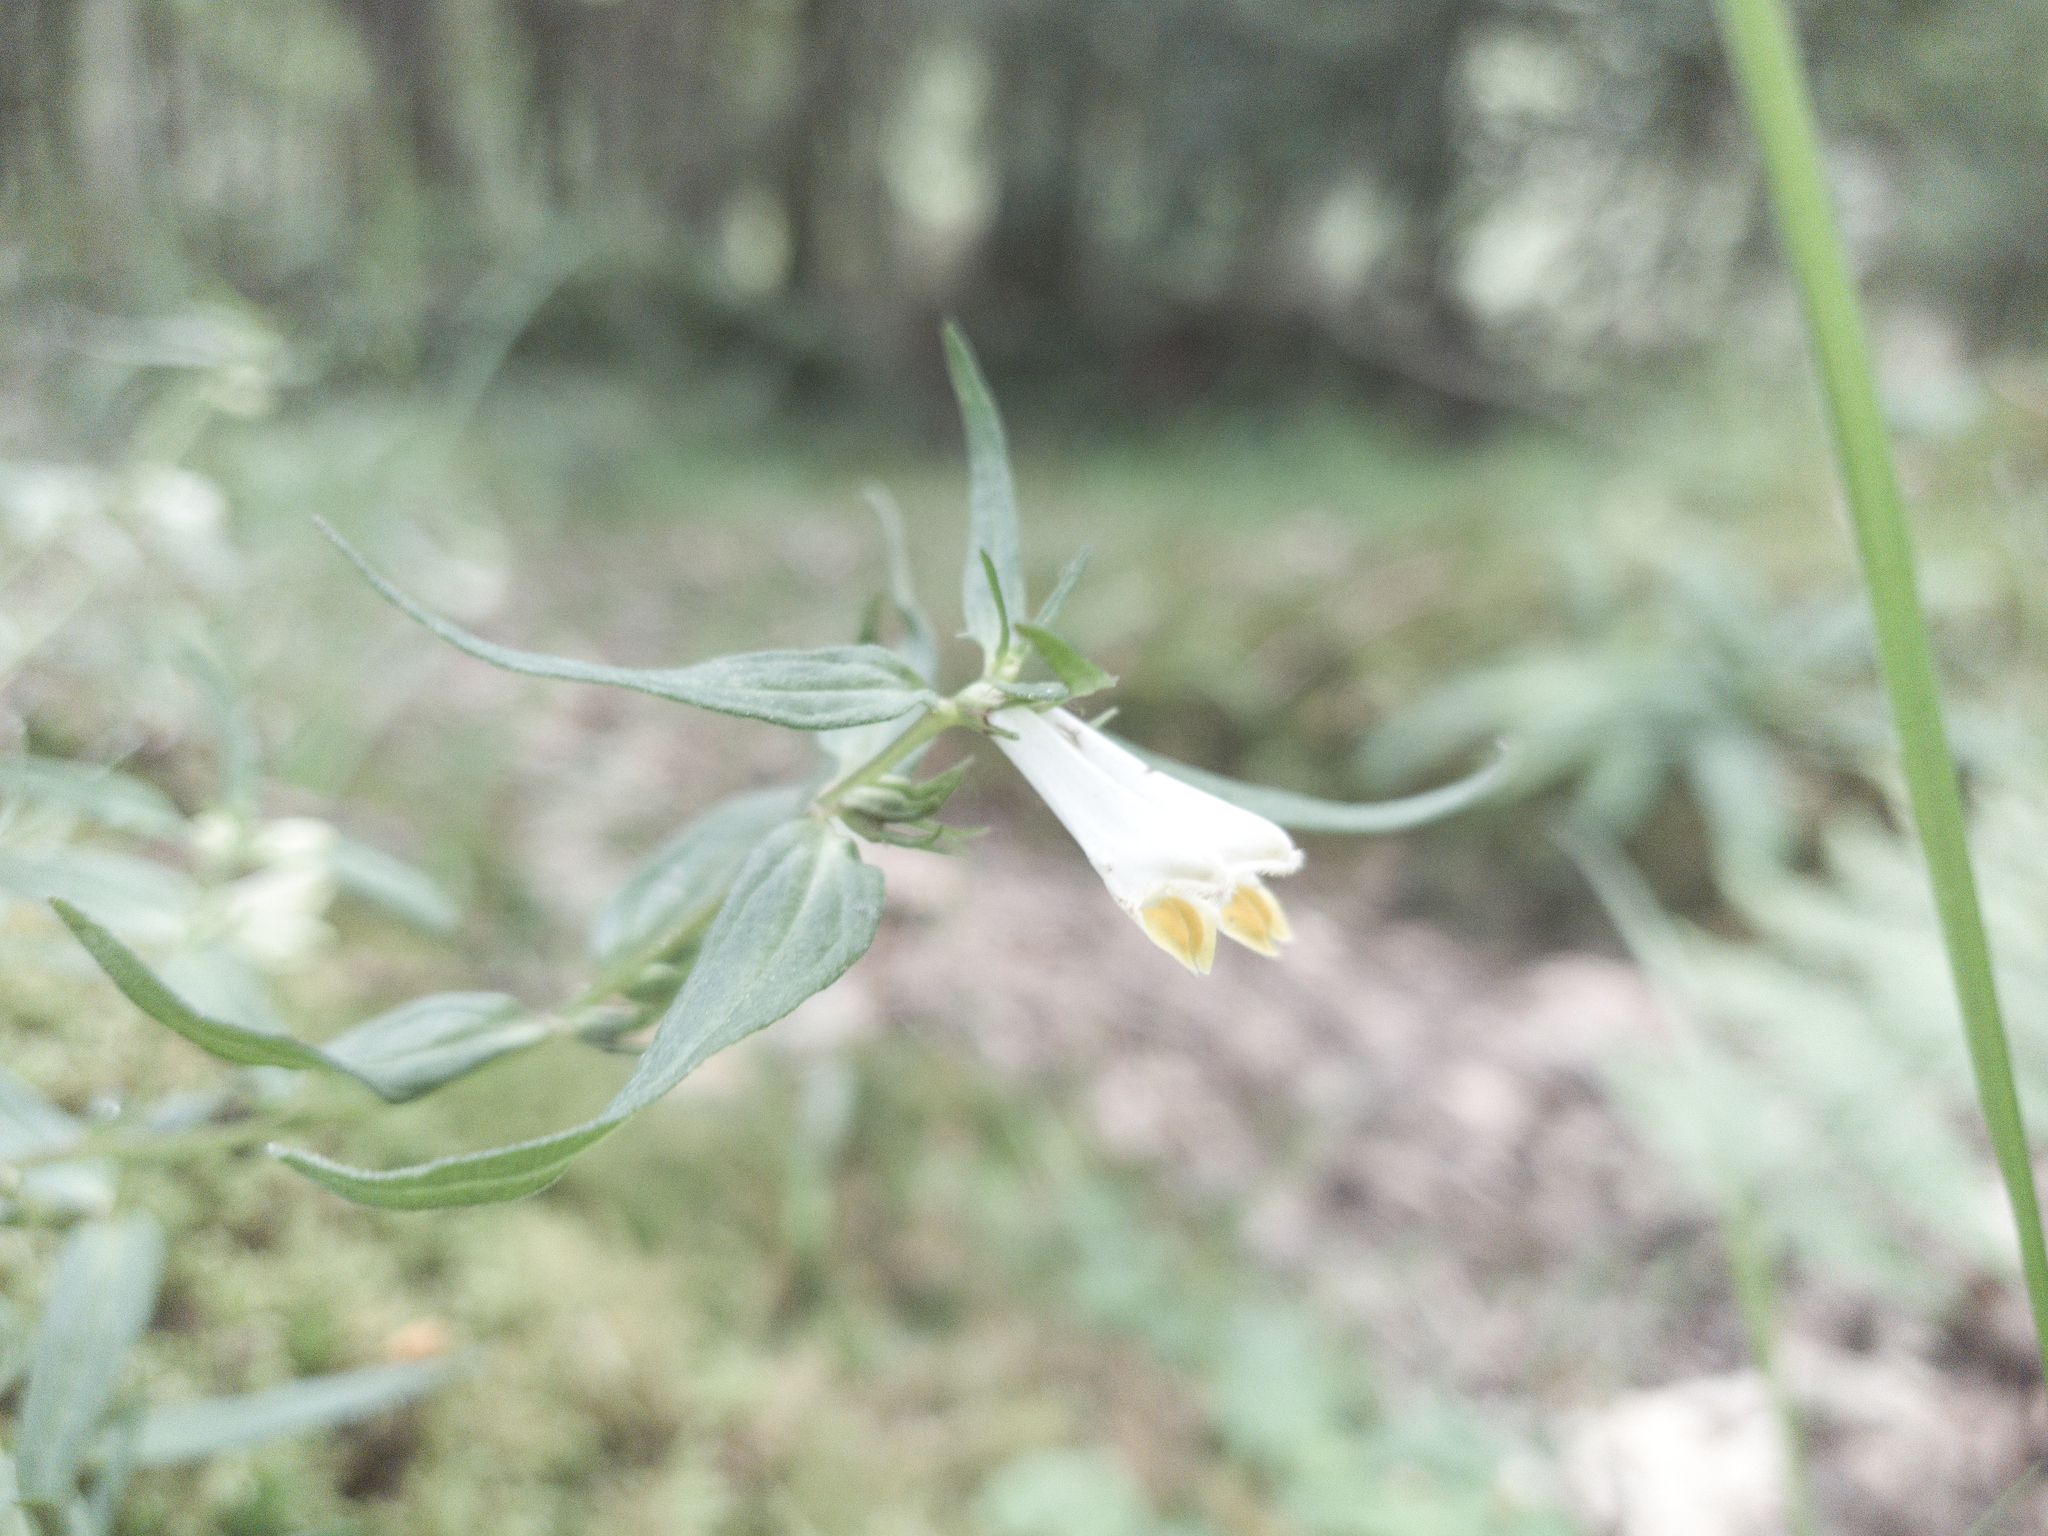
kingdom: Plantae
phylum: Tracheophyta
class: Magnoliopsida
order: Lamiales
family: Orobanchaceae
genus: Melampyrum
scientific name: Melampyrum pratense
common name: Common cow-wheat
